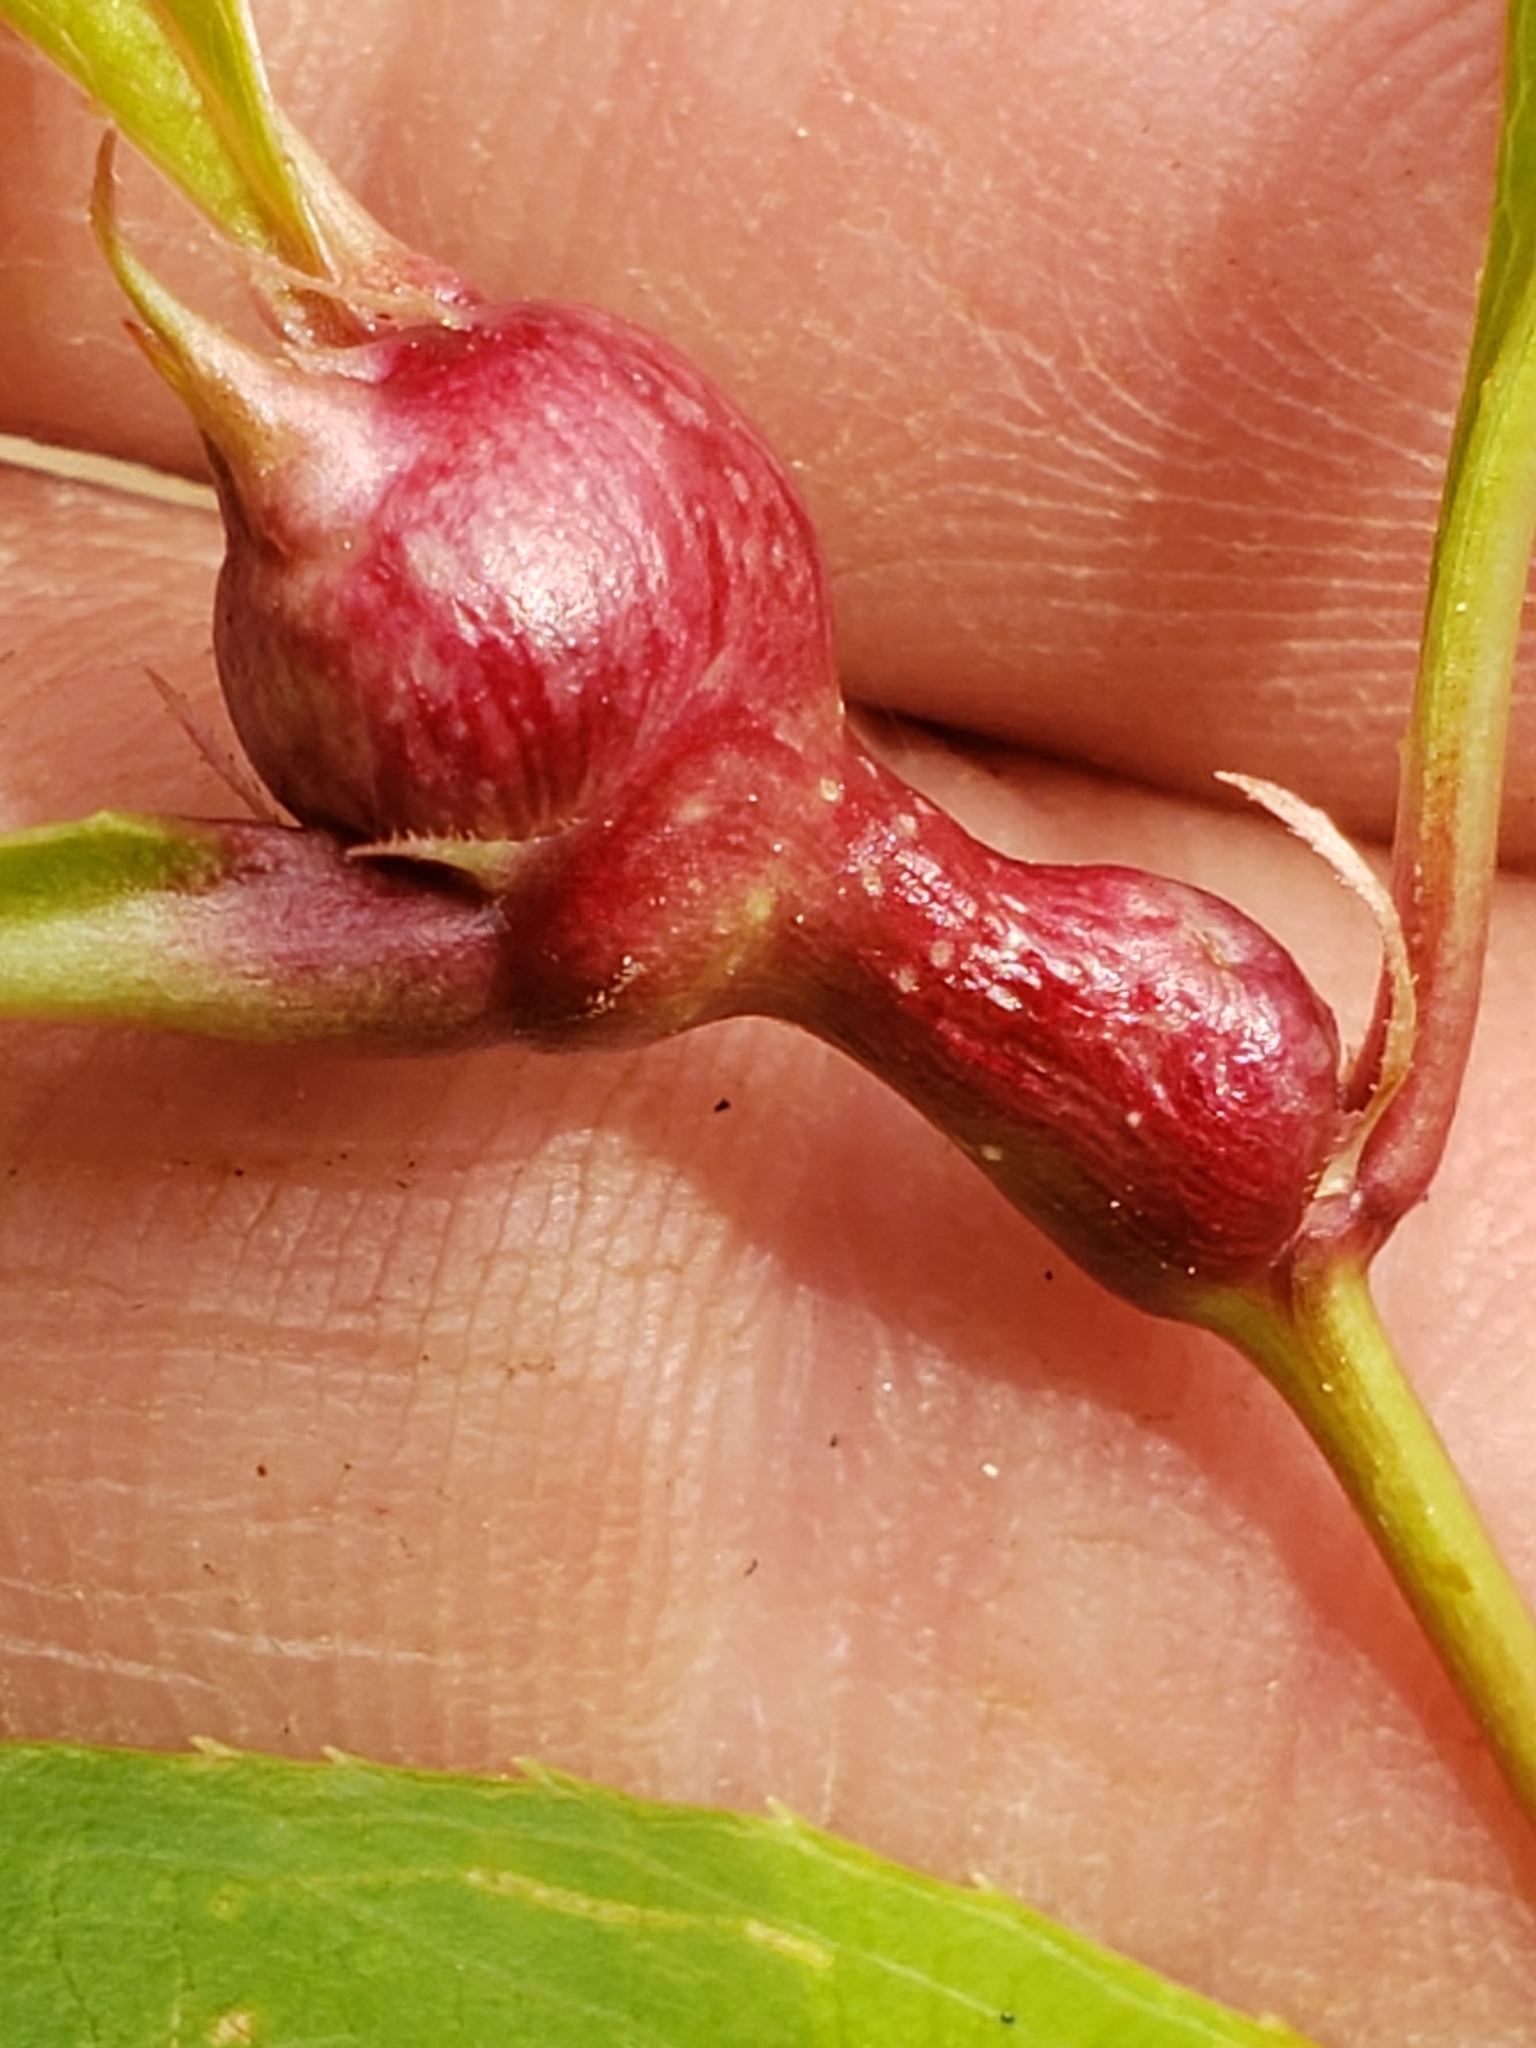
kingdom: Animalia
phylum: Arthropoda
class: Insecta
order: Diptera
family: Cecidomyiidae
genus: Contarinia
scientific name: Contarinia cerasiserotinae
